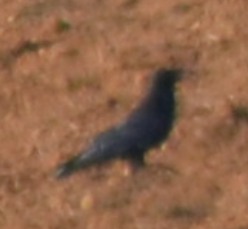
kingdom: Animalia
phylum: Chordata
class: Aves
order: Passeriformes
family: Corvidae
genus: Corvus
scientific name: Corvus corax
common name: Common raven
